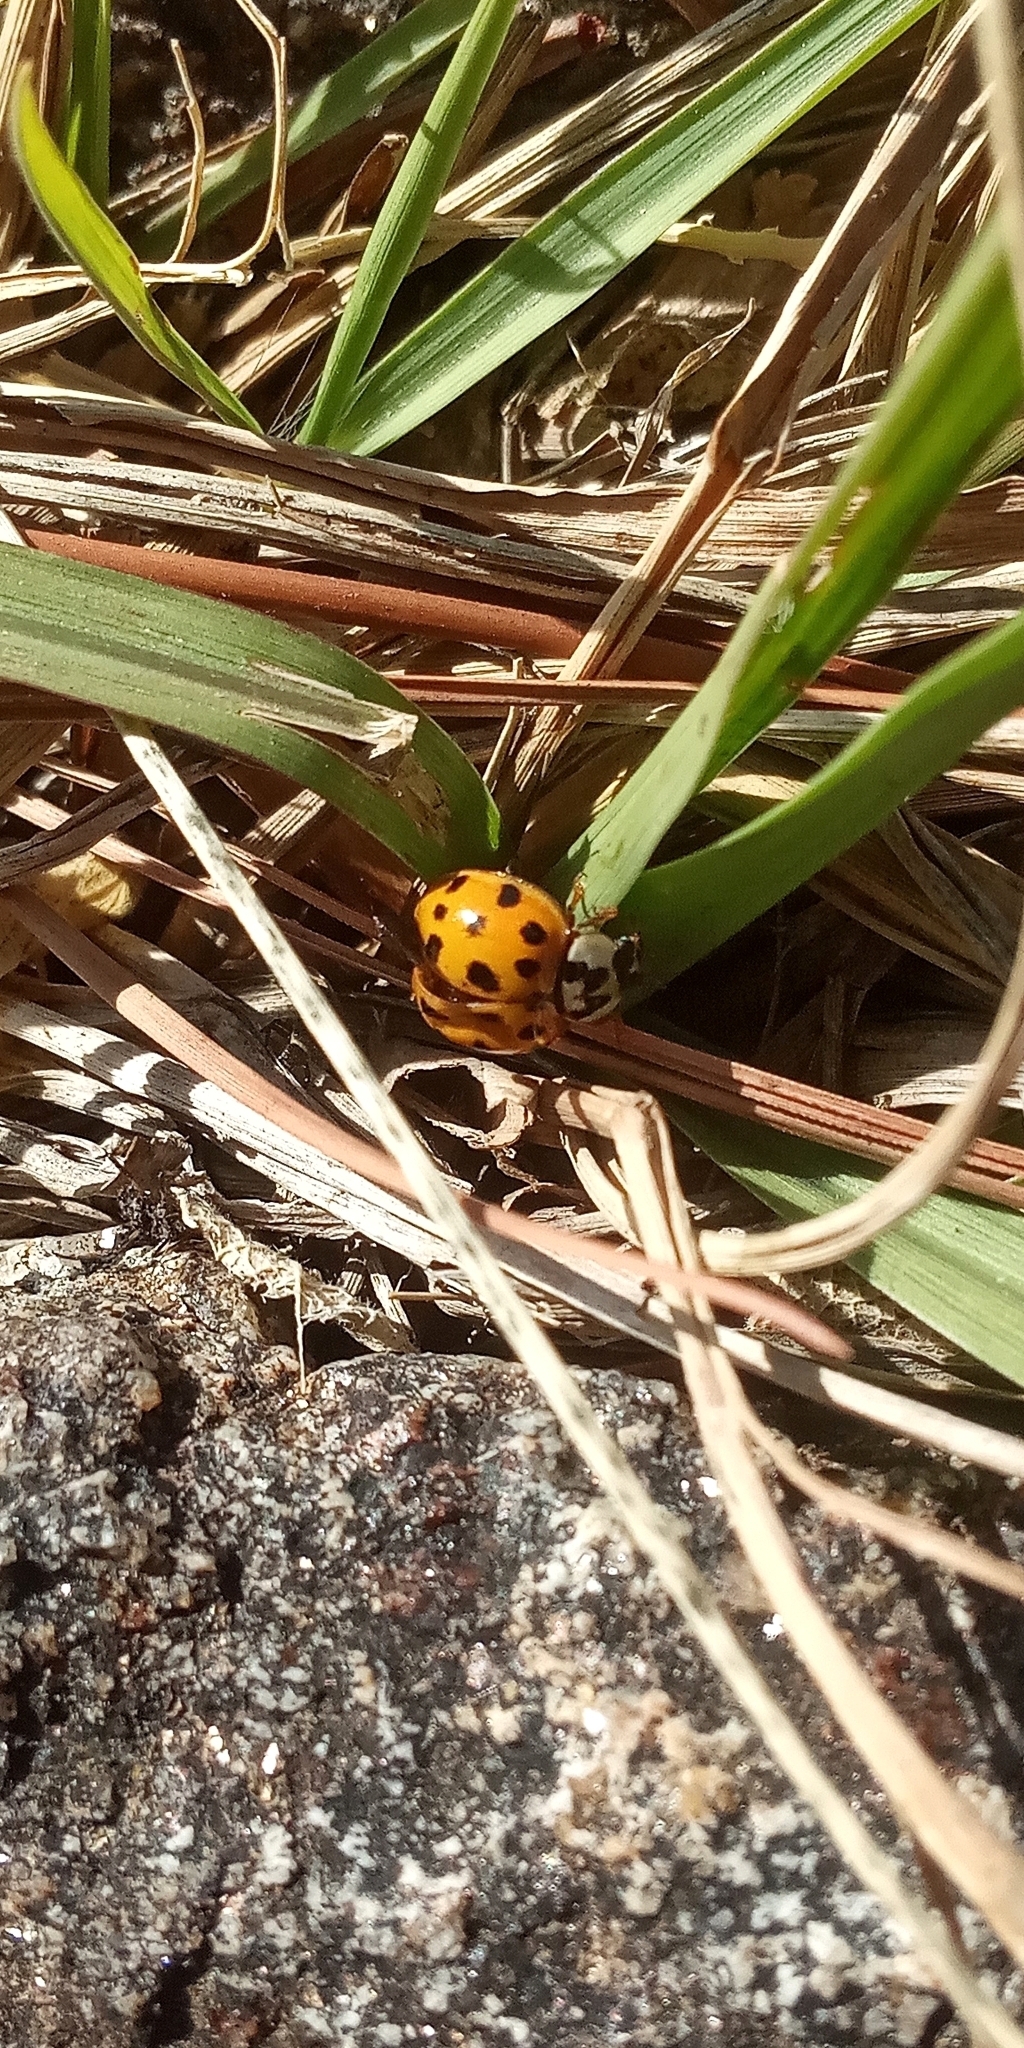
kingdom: Animalia
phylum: Arthropoda
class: Insecta
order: Coleoptera
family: Coccinellidae
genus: Harmonia
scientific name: Harmonia axyridis
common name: Harlequin ladybird
